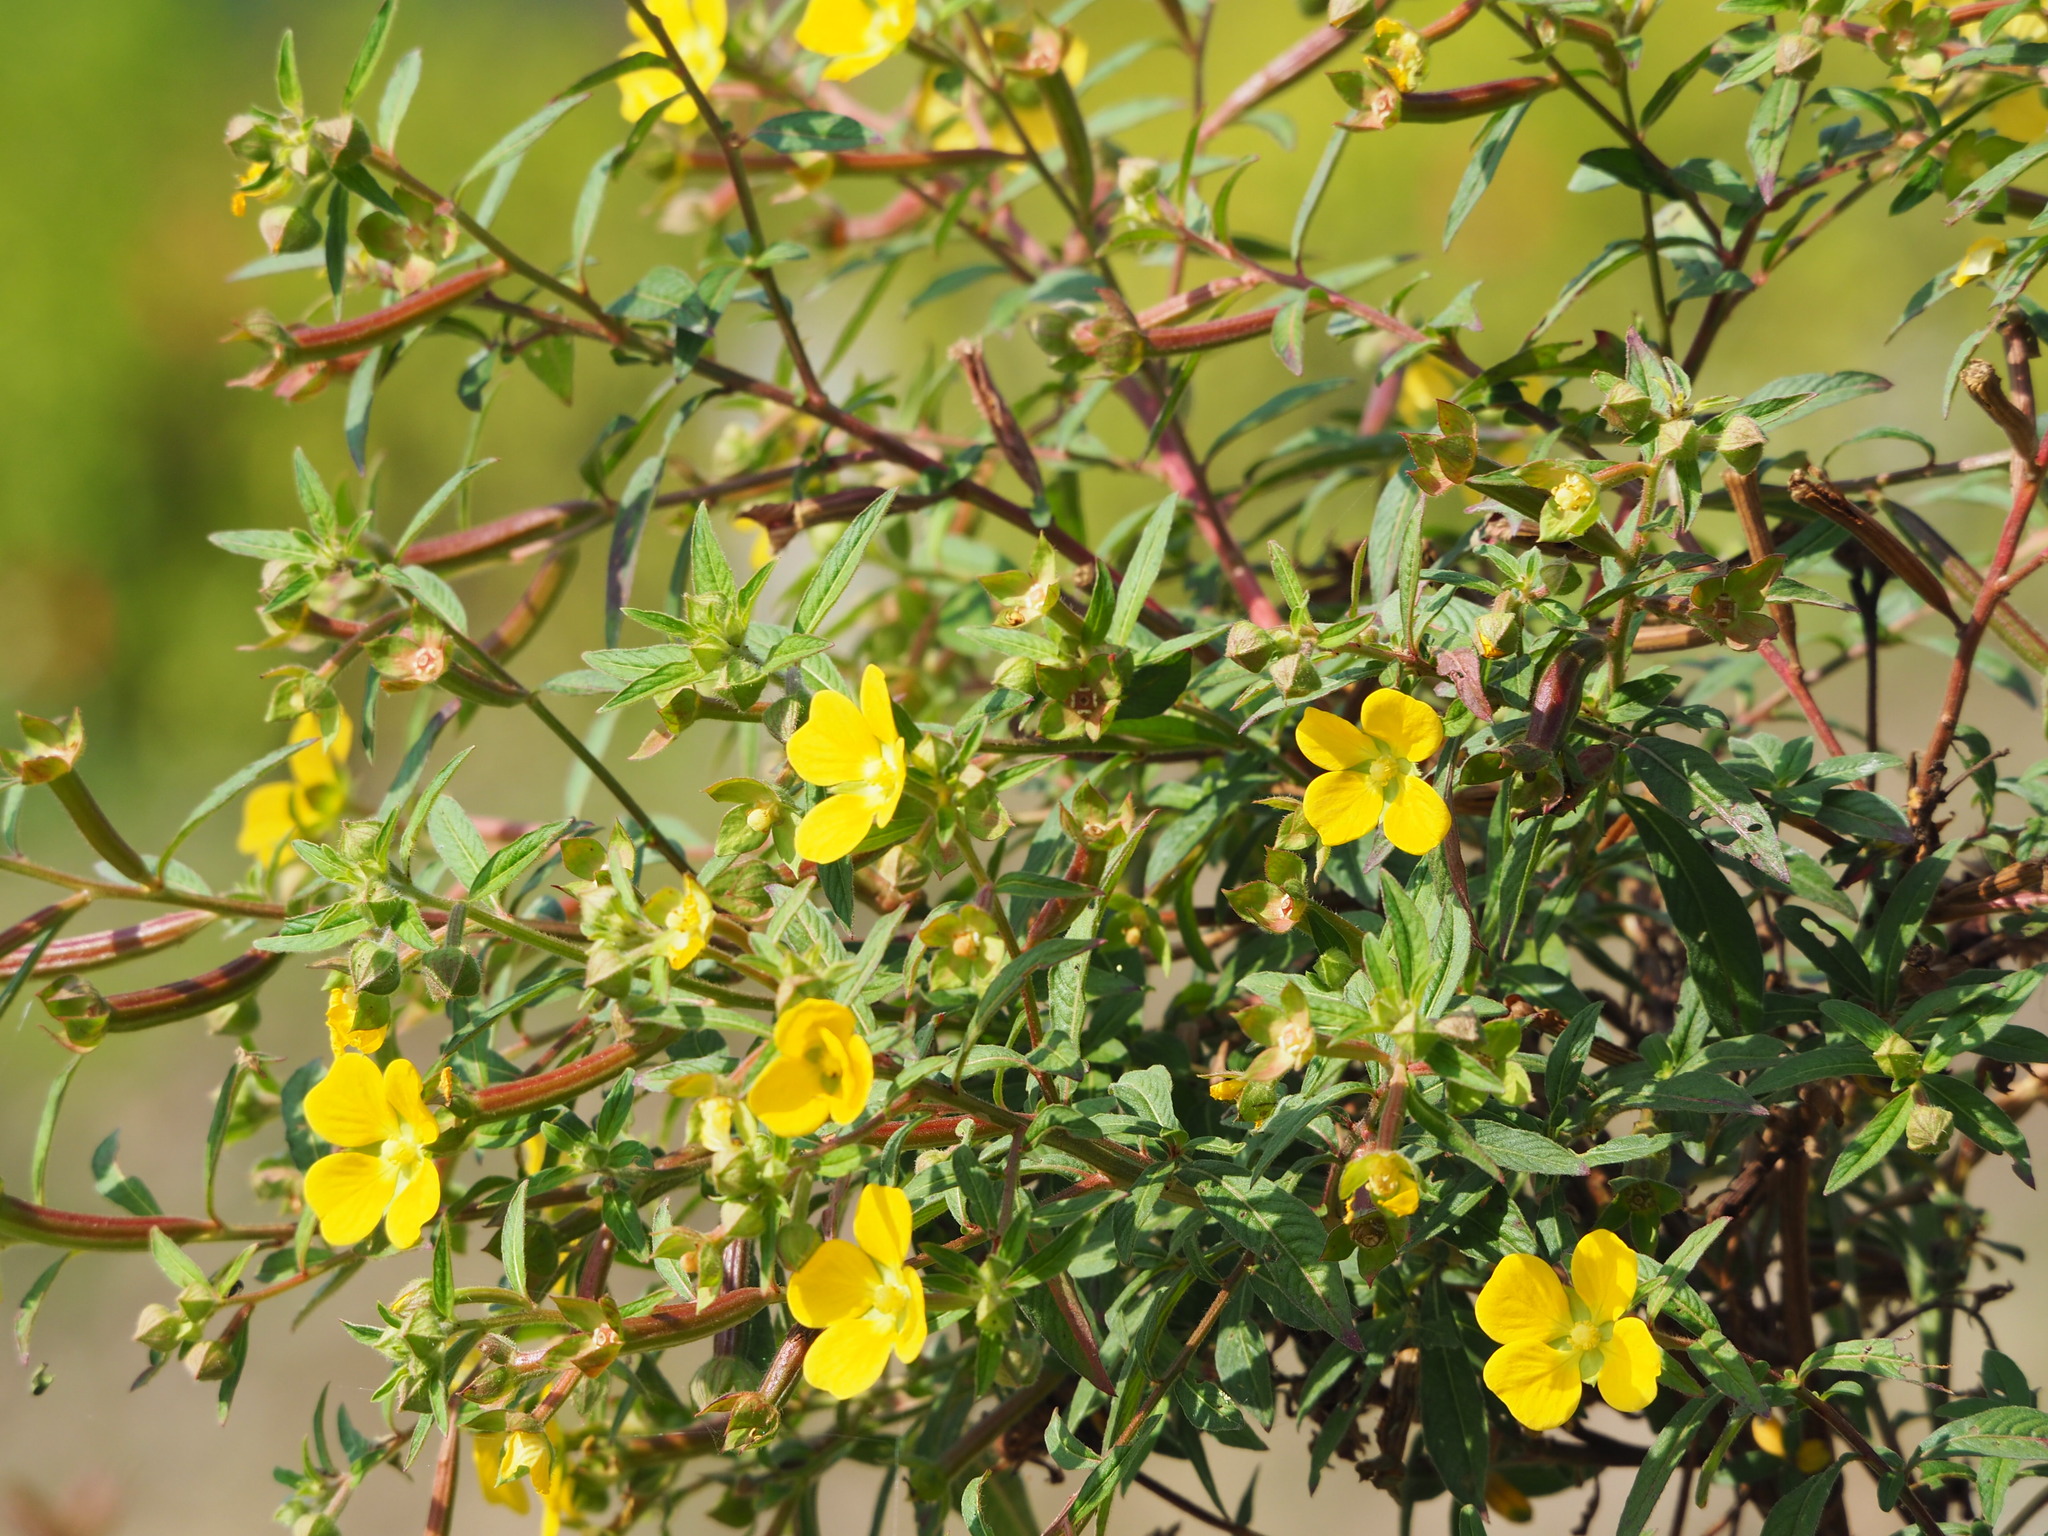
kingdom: Plantae
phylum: Tracheophyta
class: Magnoliopsida
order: Myrtales
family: Onagraceae
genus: Ludwigia
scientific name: Ludwigia octovalvis
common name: Water-primrose
